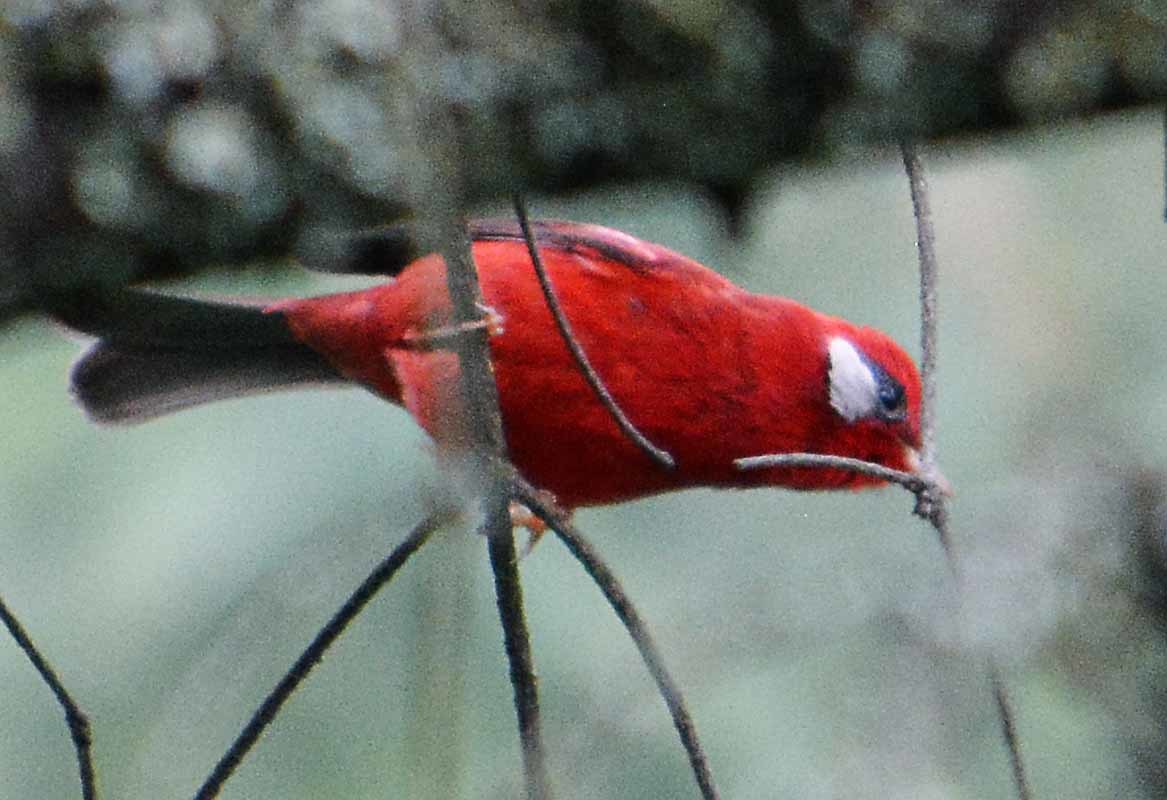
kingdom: Animalia
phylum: Chordata
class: Aves
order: Passeriformes
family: Parulidae
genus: Cardellina
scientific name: Cardellina rubra
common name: Red warbler
